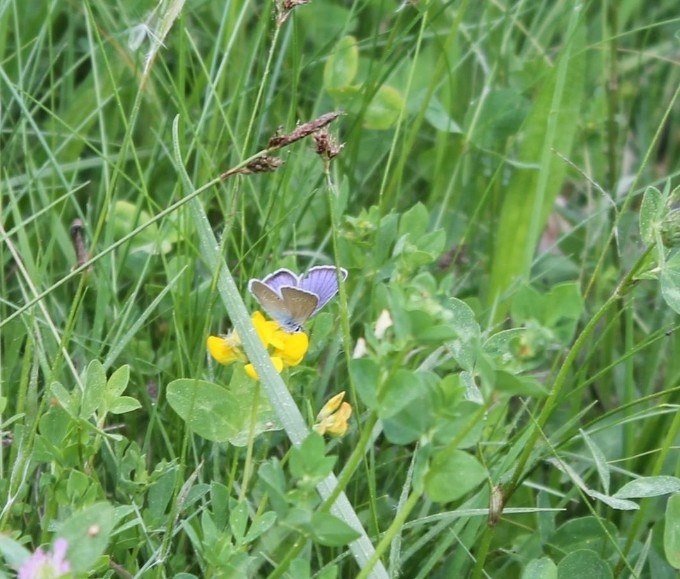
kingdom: Animalia
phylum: Arthropoda
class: Insecta
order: Lepidoptera
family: Lycaenidae
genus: Cyaniris
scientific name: Cyaniris semiargus
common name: Mazarine blue
